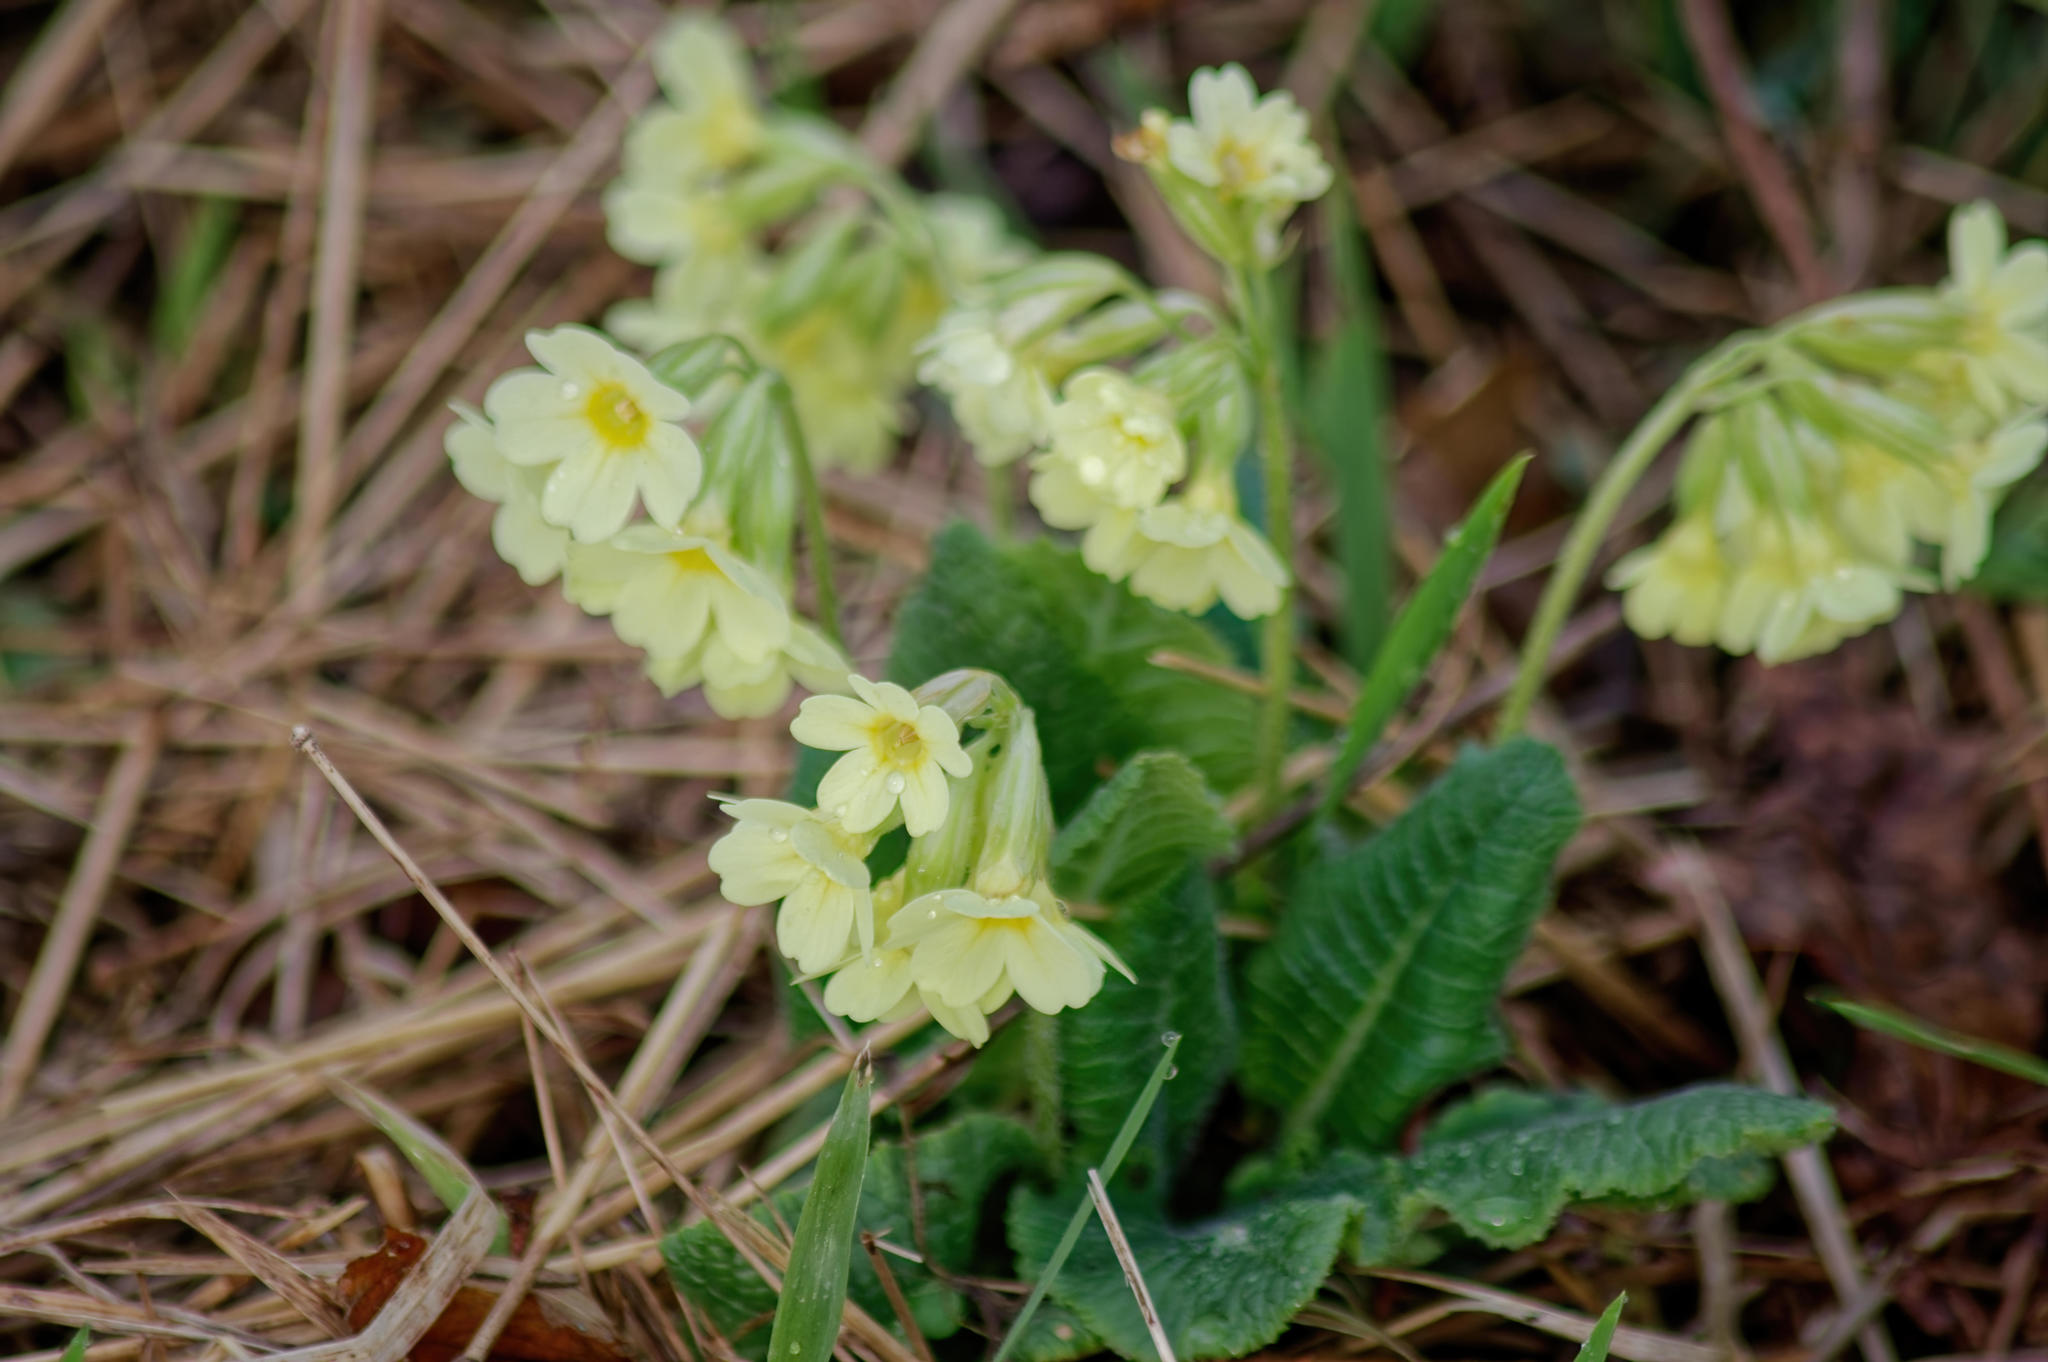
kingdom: Plantae
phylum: Tracheophyta
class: Magnoliopsida
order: Ericales
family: Primulaceae
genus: Primula
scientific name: Primula elatior
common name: Oxlip
